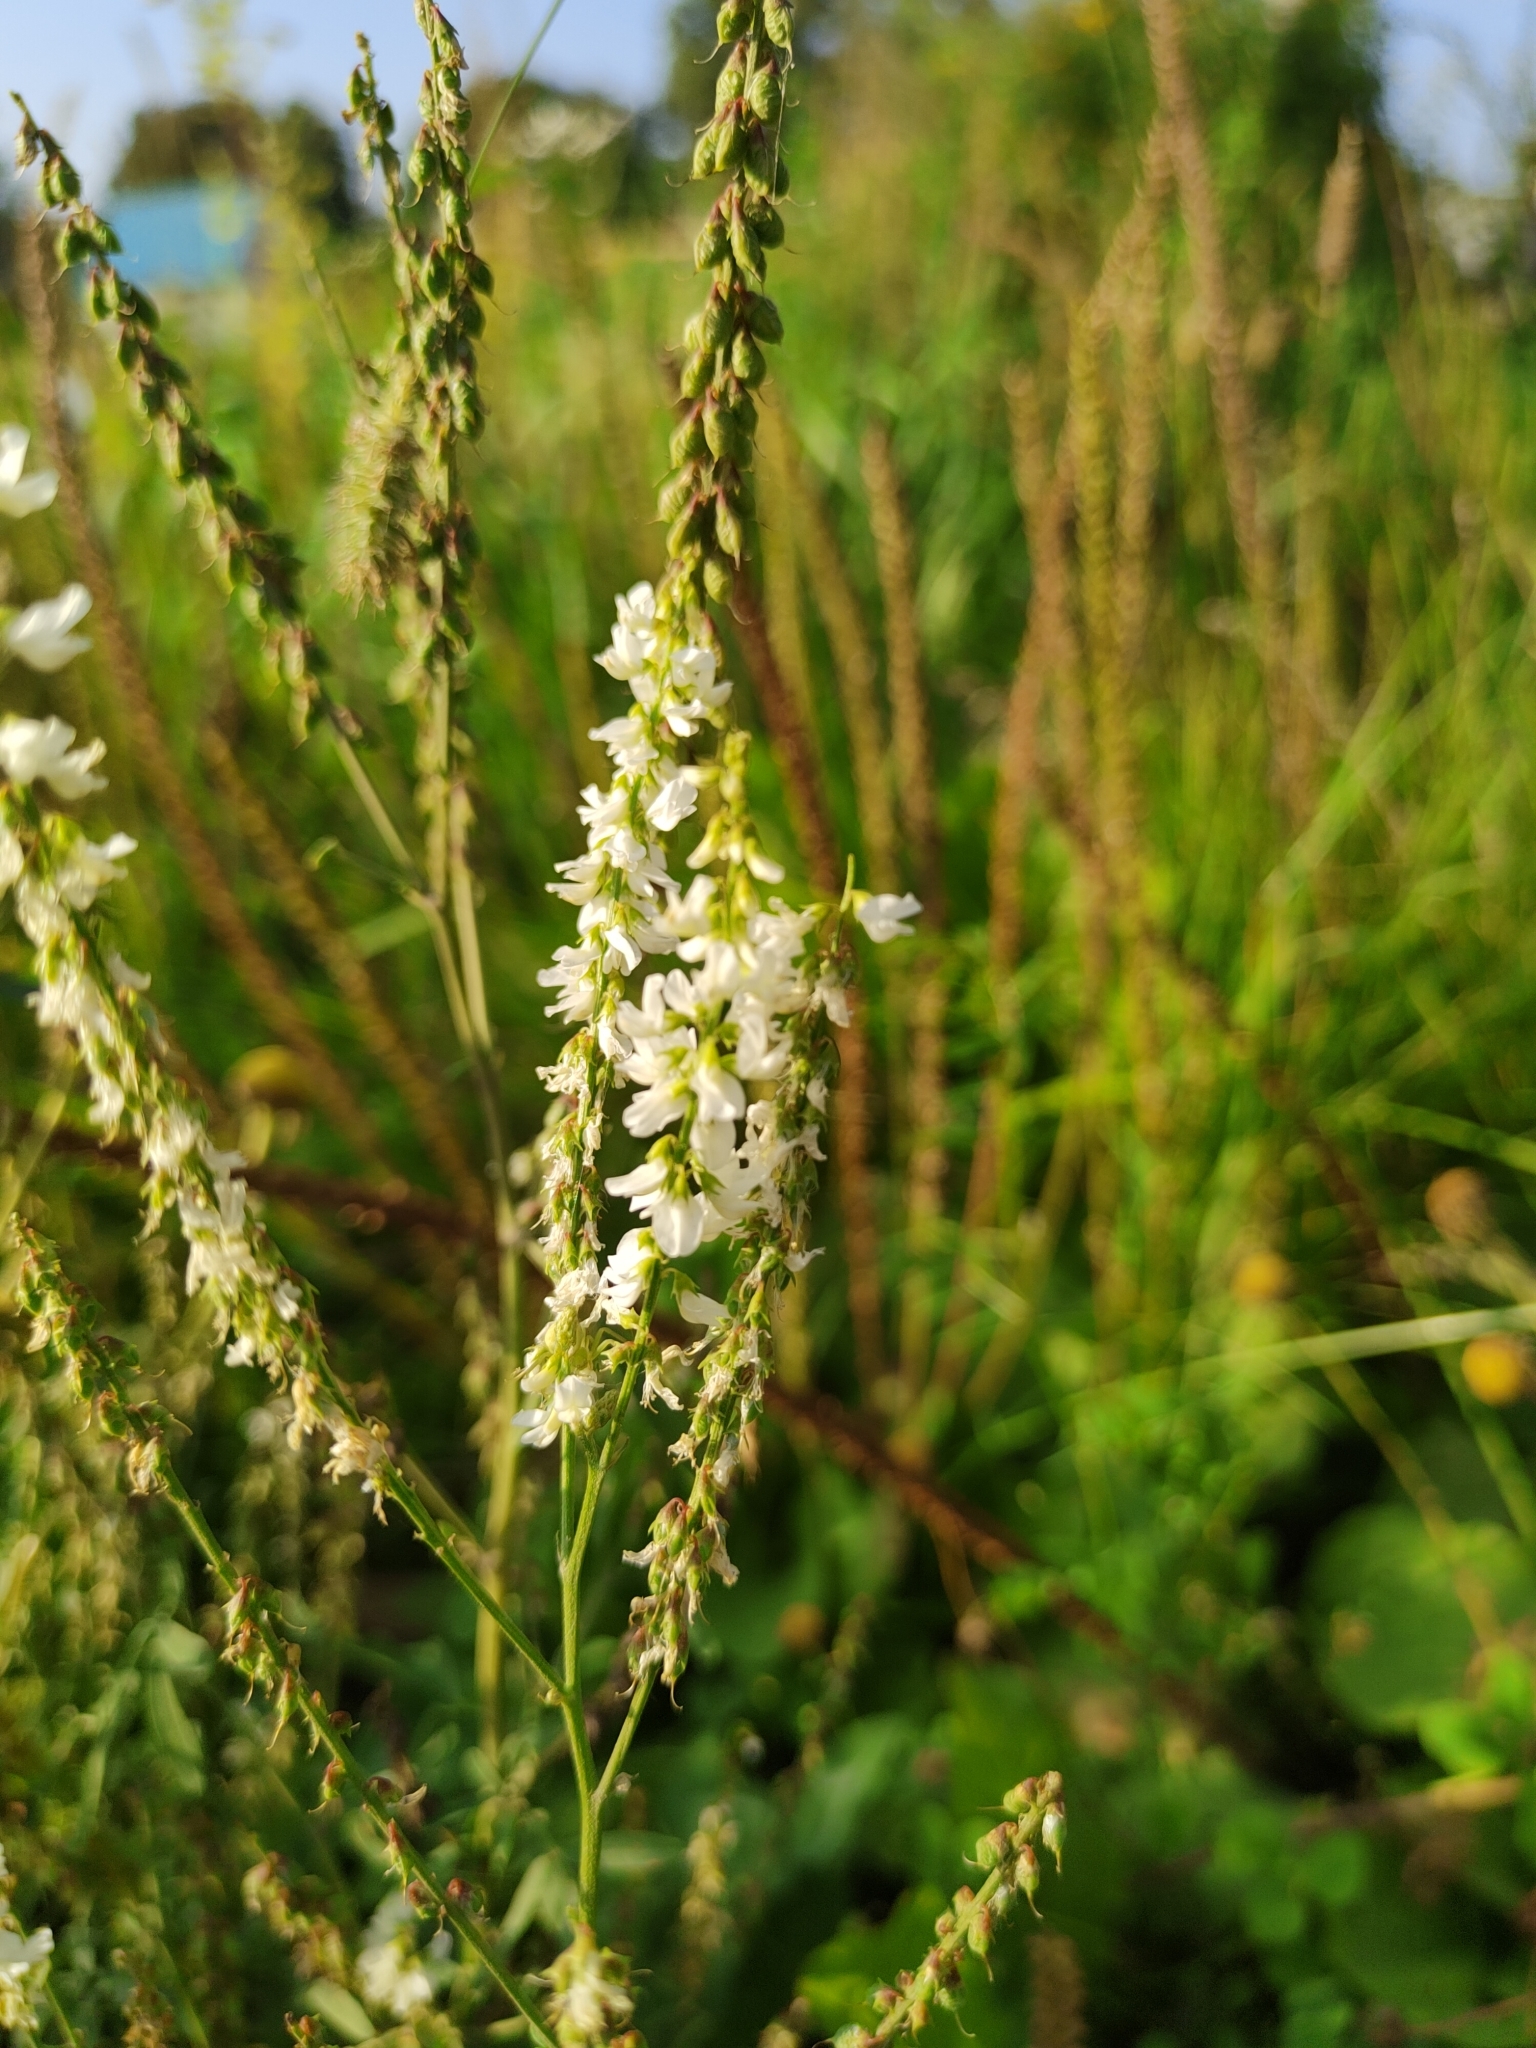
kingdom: Plantae
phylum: Tracheophyta
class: Magnoliopsida
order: Fabales
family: Fabaceae
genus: Melilotus
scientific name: Melilotus albus
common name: White melilot
